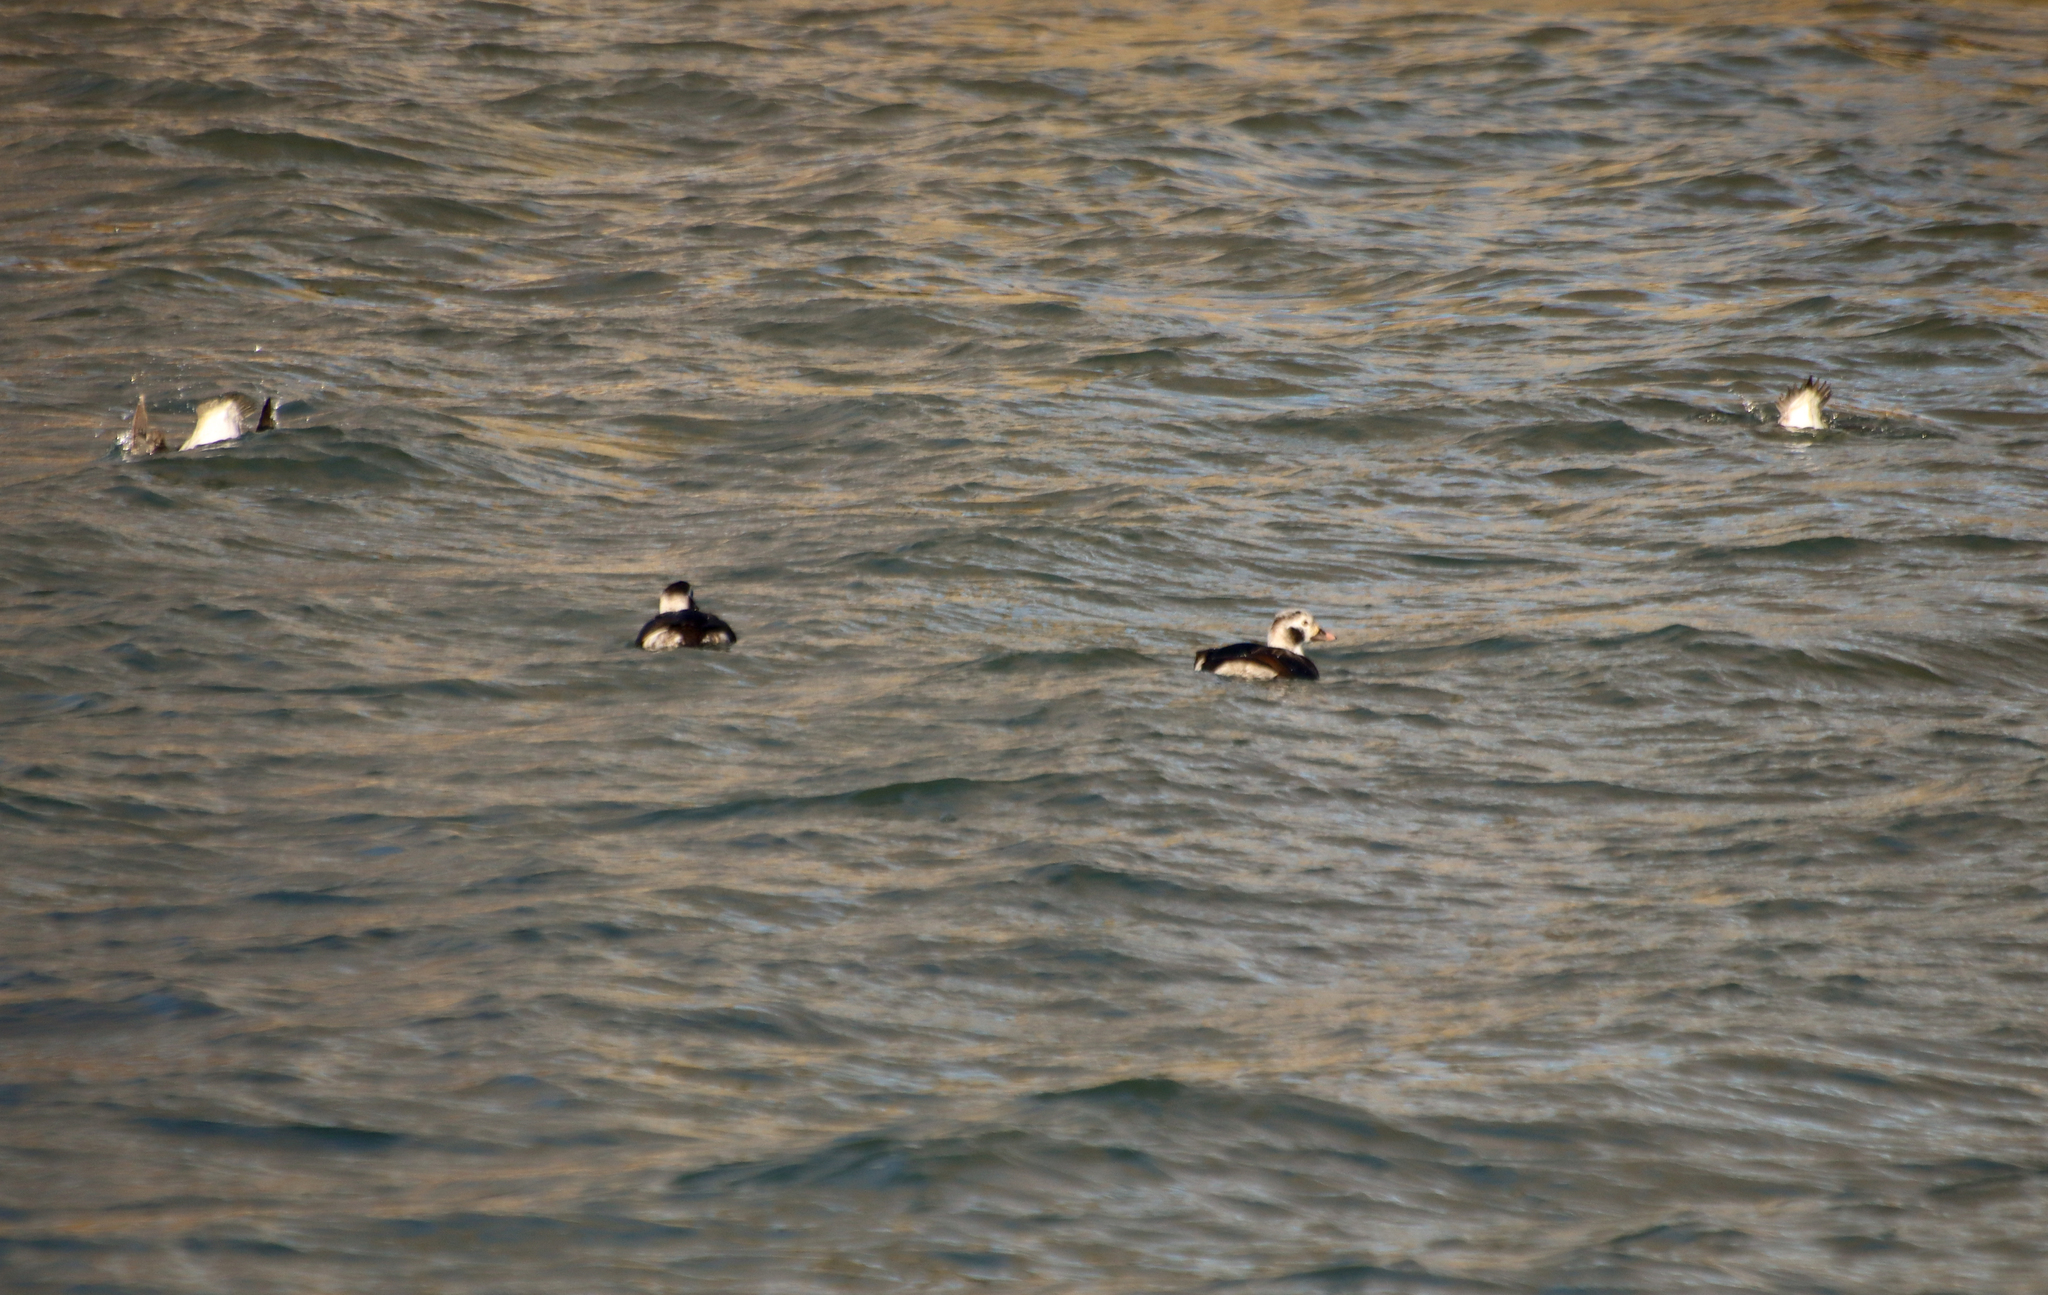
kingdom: Animalia
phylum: Chordata
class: Aves
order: Anseriformes
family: Anatidae
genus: Clangula
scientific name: Clangula hyemalis
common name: Long-tailed duck
